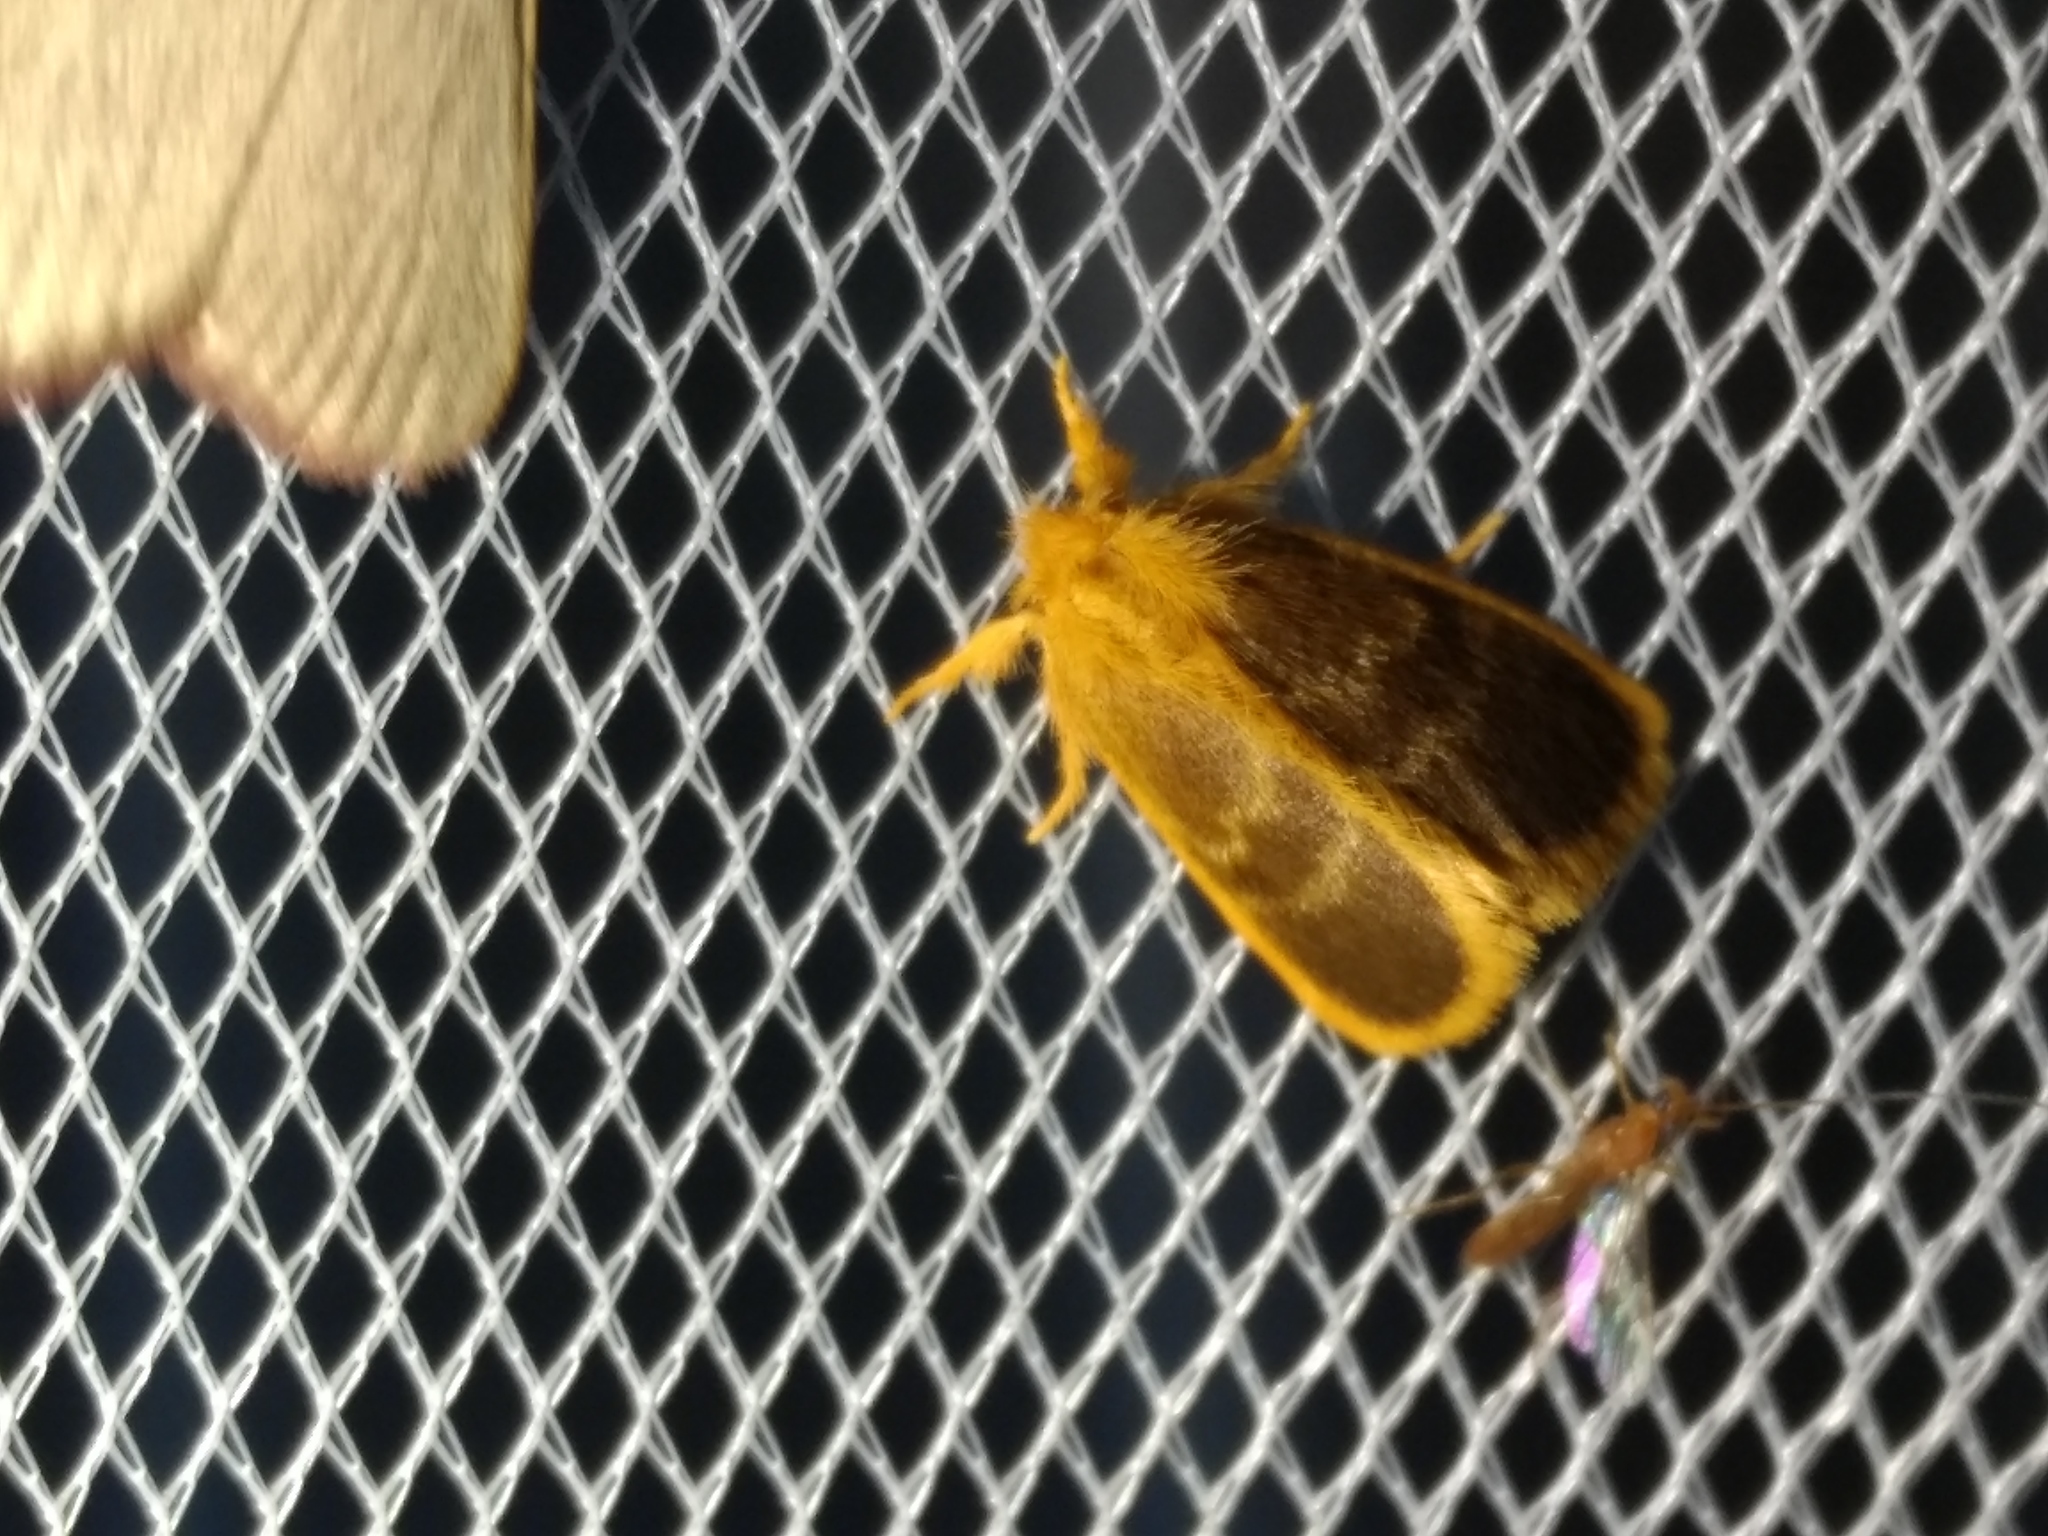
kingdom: Animalia
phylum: Arthropoda
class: Insecta
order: Lepidoptera
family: Erebidae
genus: Euproctis
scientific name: Euproctis lucifuga
